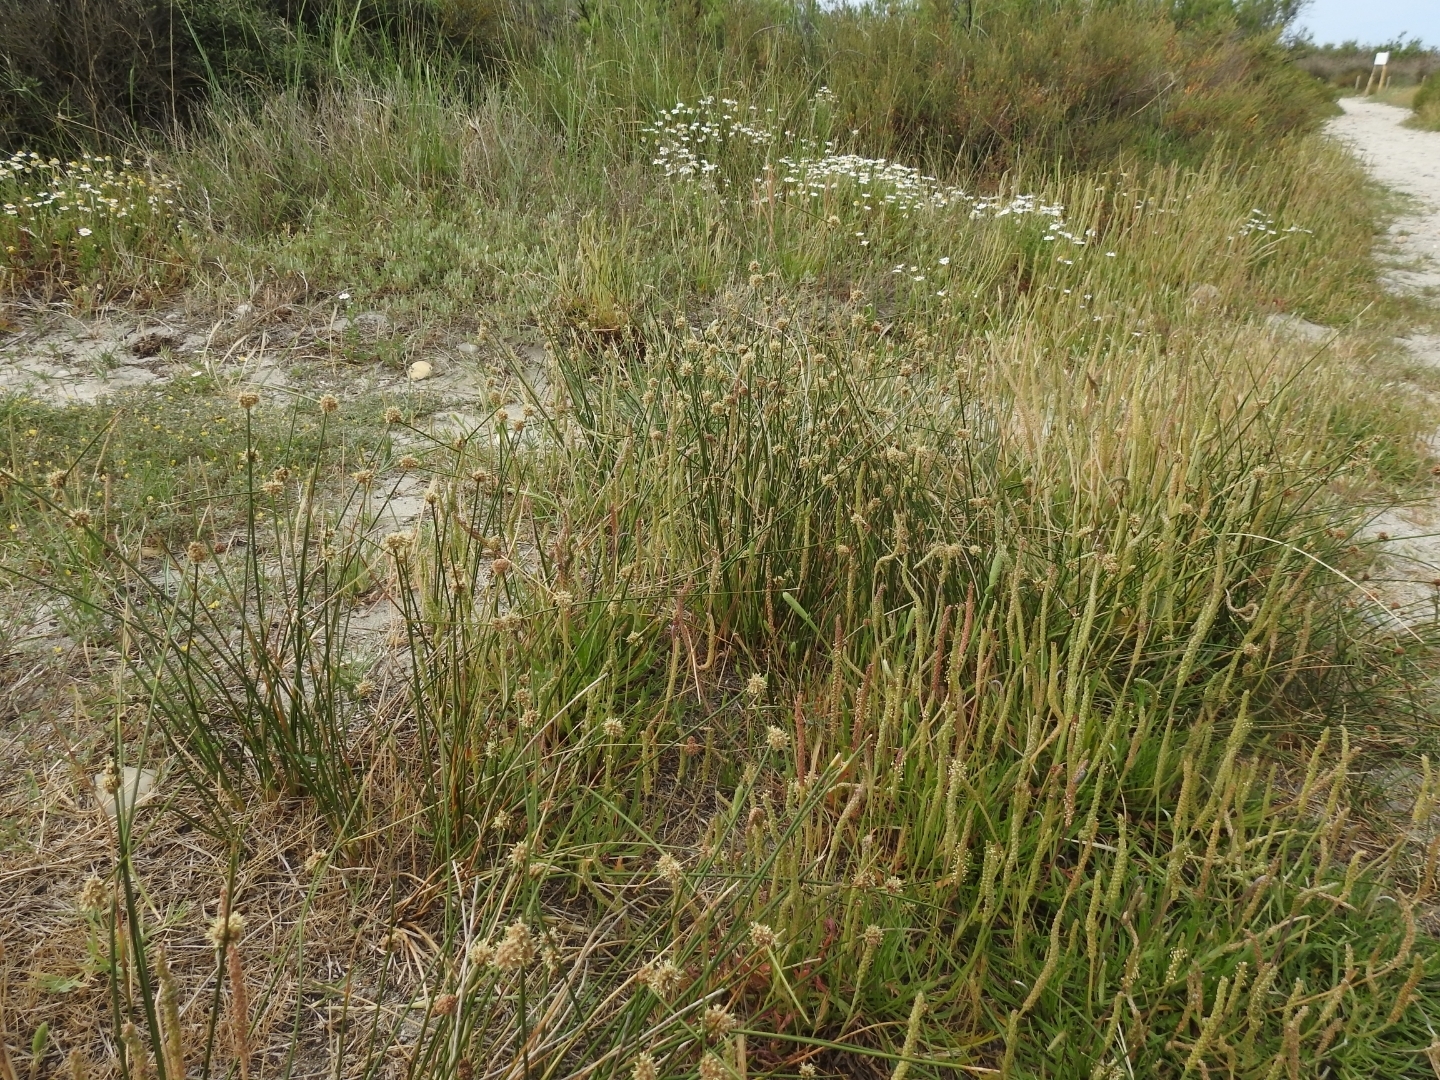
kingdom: Plantae
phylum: Tracheophyta
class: Liliopsida
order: Poales
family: Cyperaceae
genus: Scirpoides
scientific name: Scirpoides holoschoenus
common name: Round-headed club-rush
